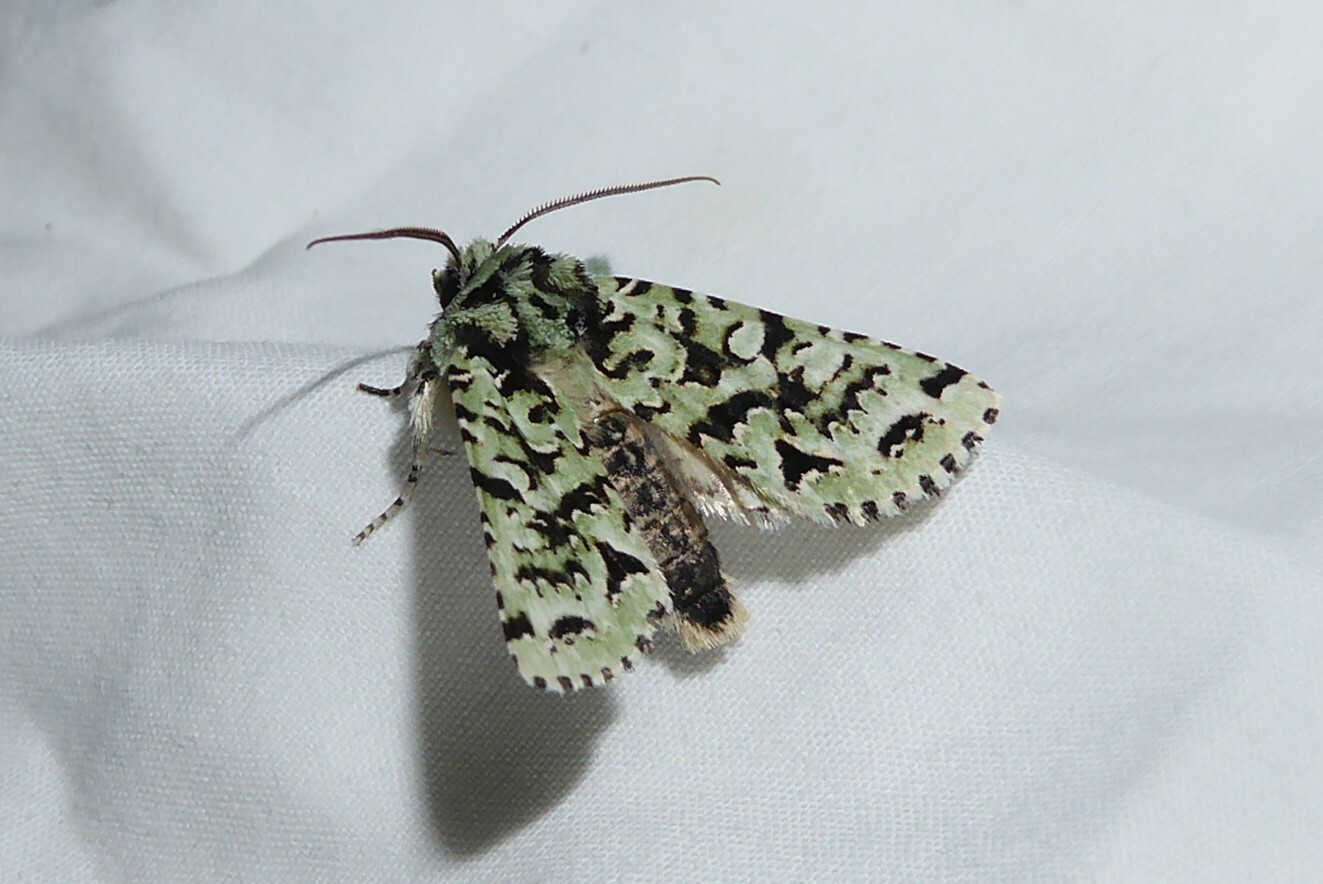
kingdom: Animalia
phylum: Arthropoda
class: Insecta
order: Lepidoptera
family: Noctuidae
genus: Meterana
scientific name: Meterana
